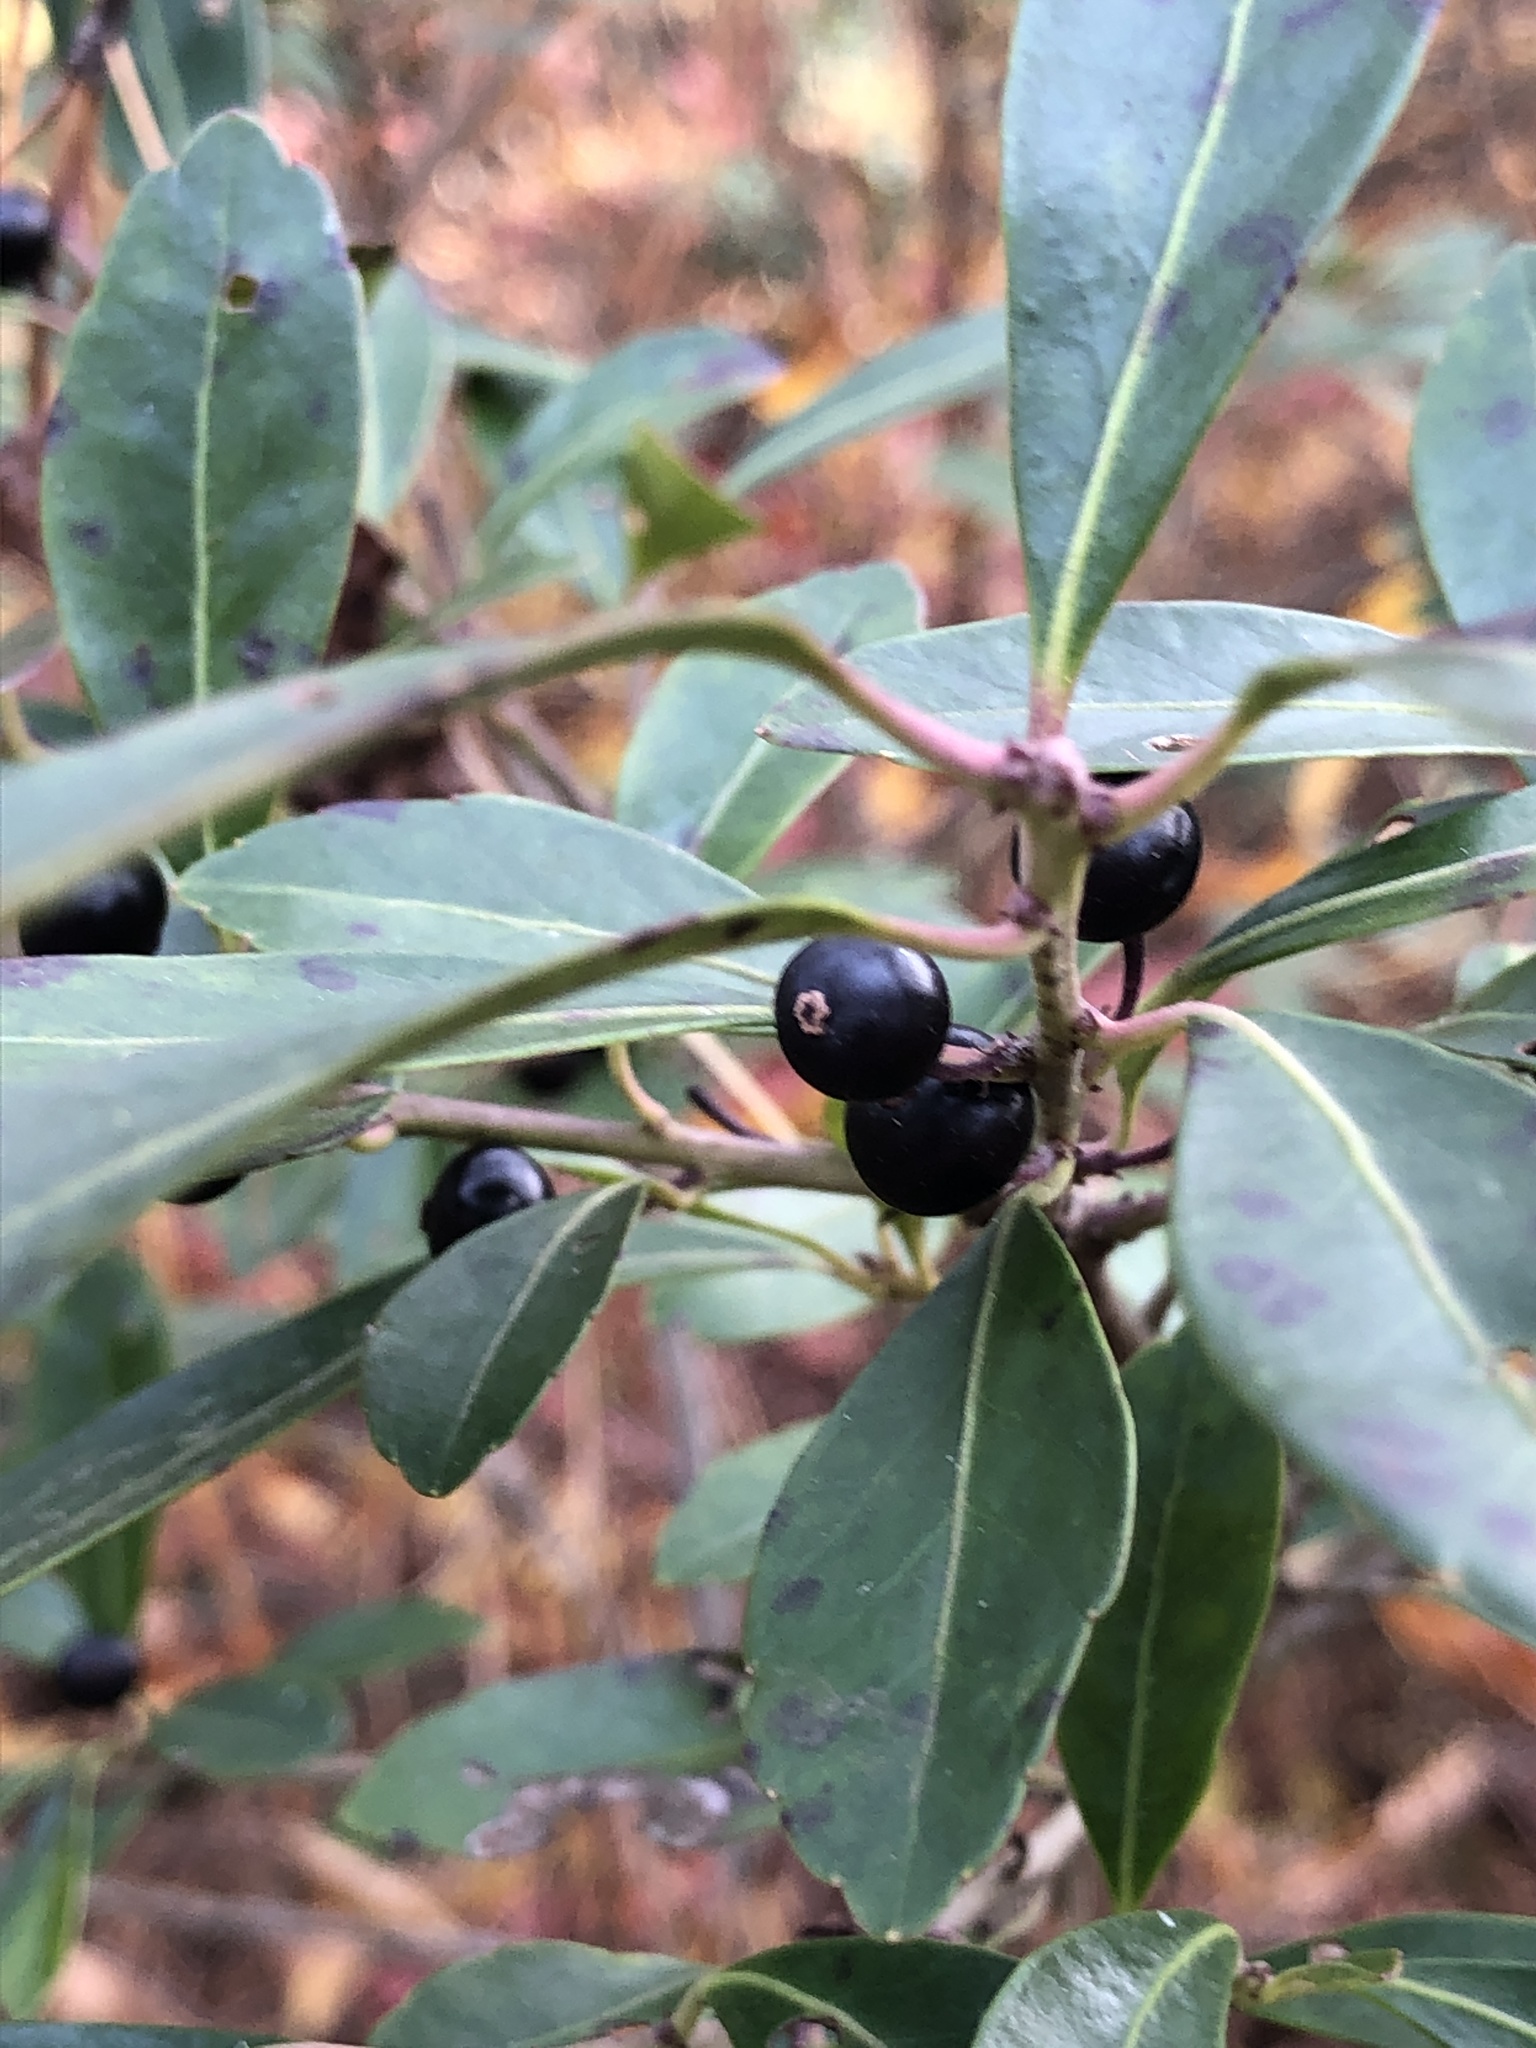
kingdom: Plantae
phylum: Tracheophyta
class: Magnoliopsida
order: Aquifoliales
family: Aquifoliaceae
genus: Ilex
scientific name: Ilex glabra
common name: Bitter gallberry
